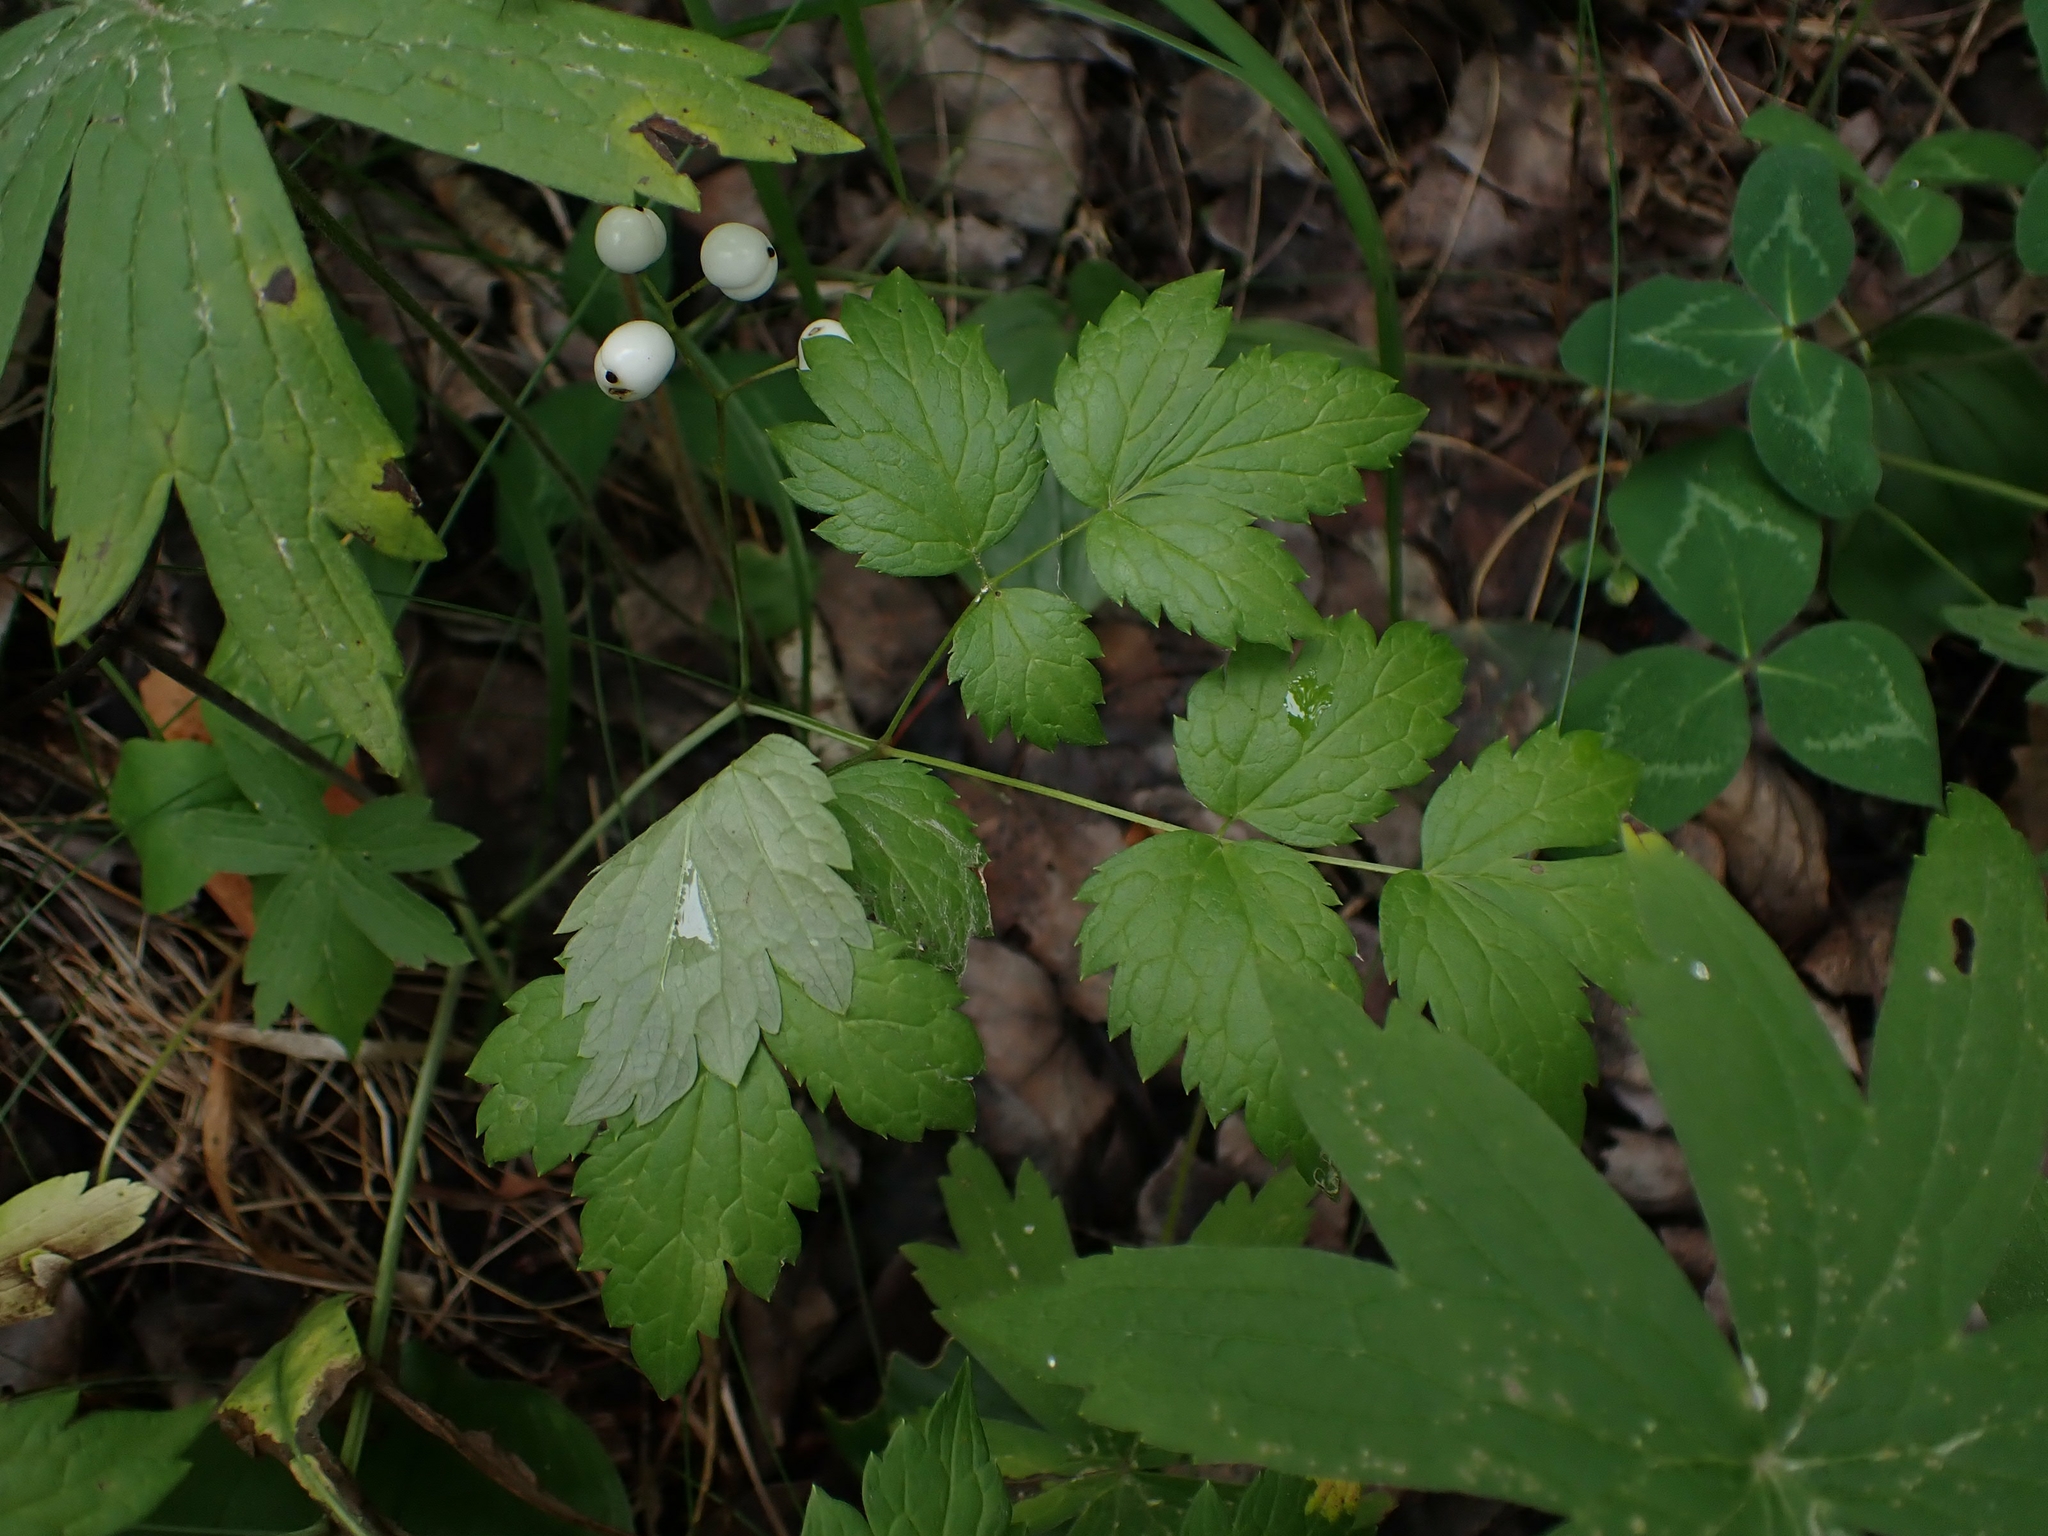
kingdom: Plantae
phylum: Tracheophyta
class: Magnoliopsida
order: Ranunculales
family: Ranunculaceae
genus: Actaea
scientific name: Actaea rubra
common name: Red baneberry
